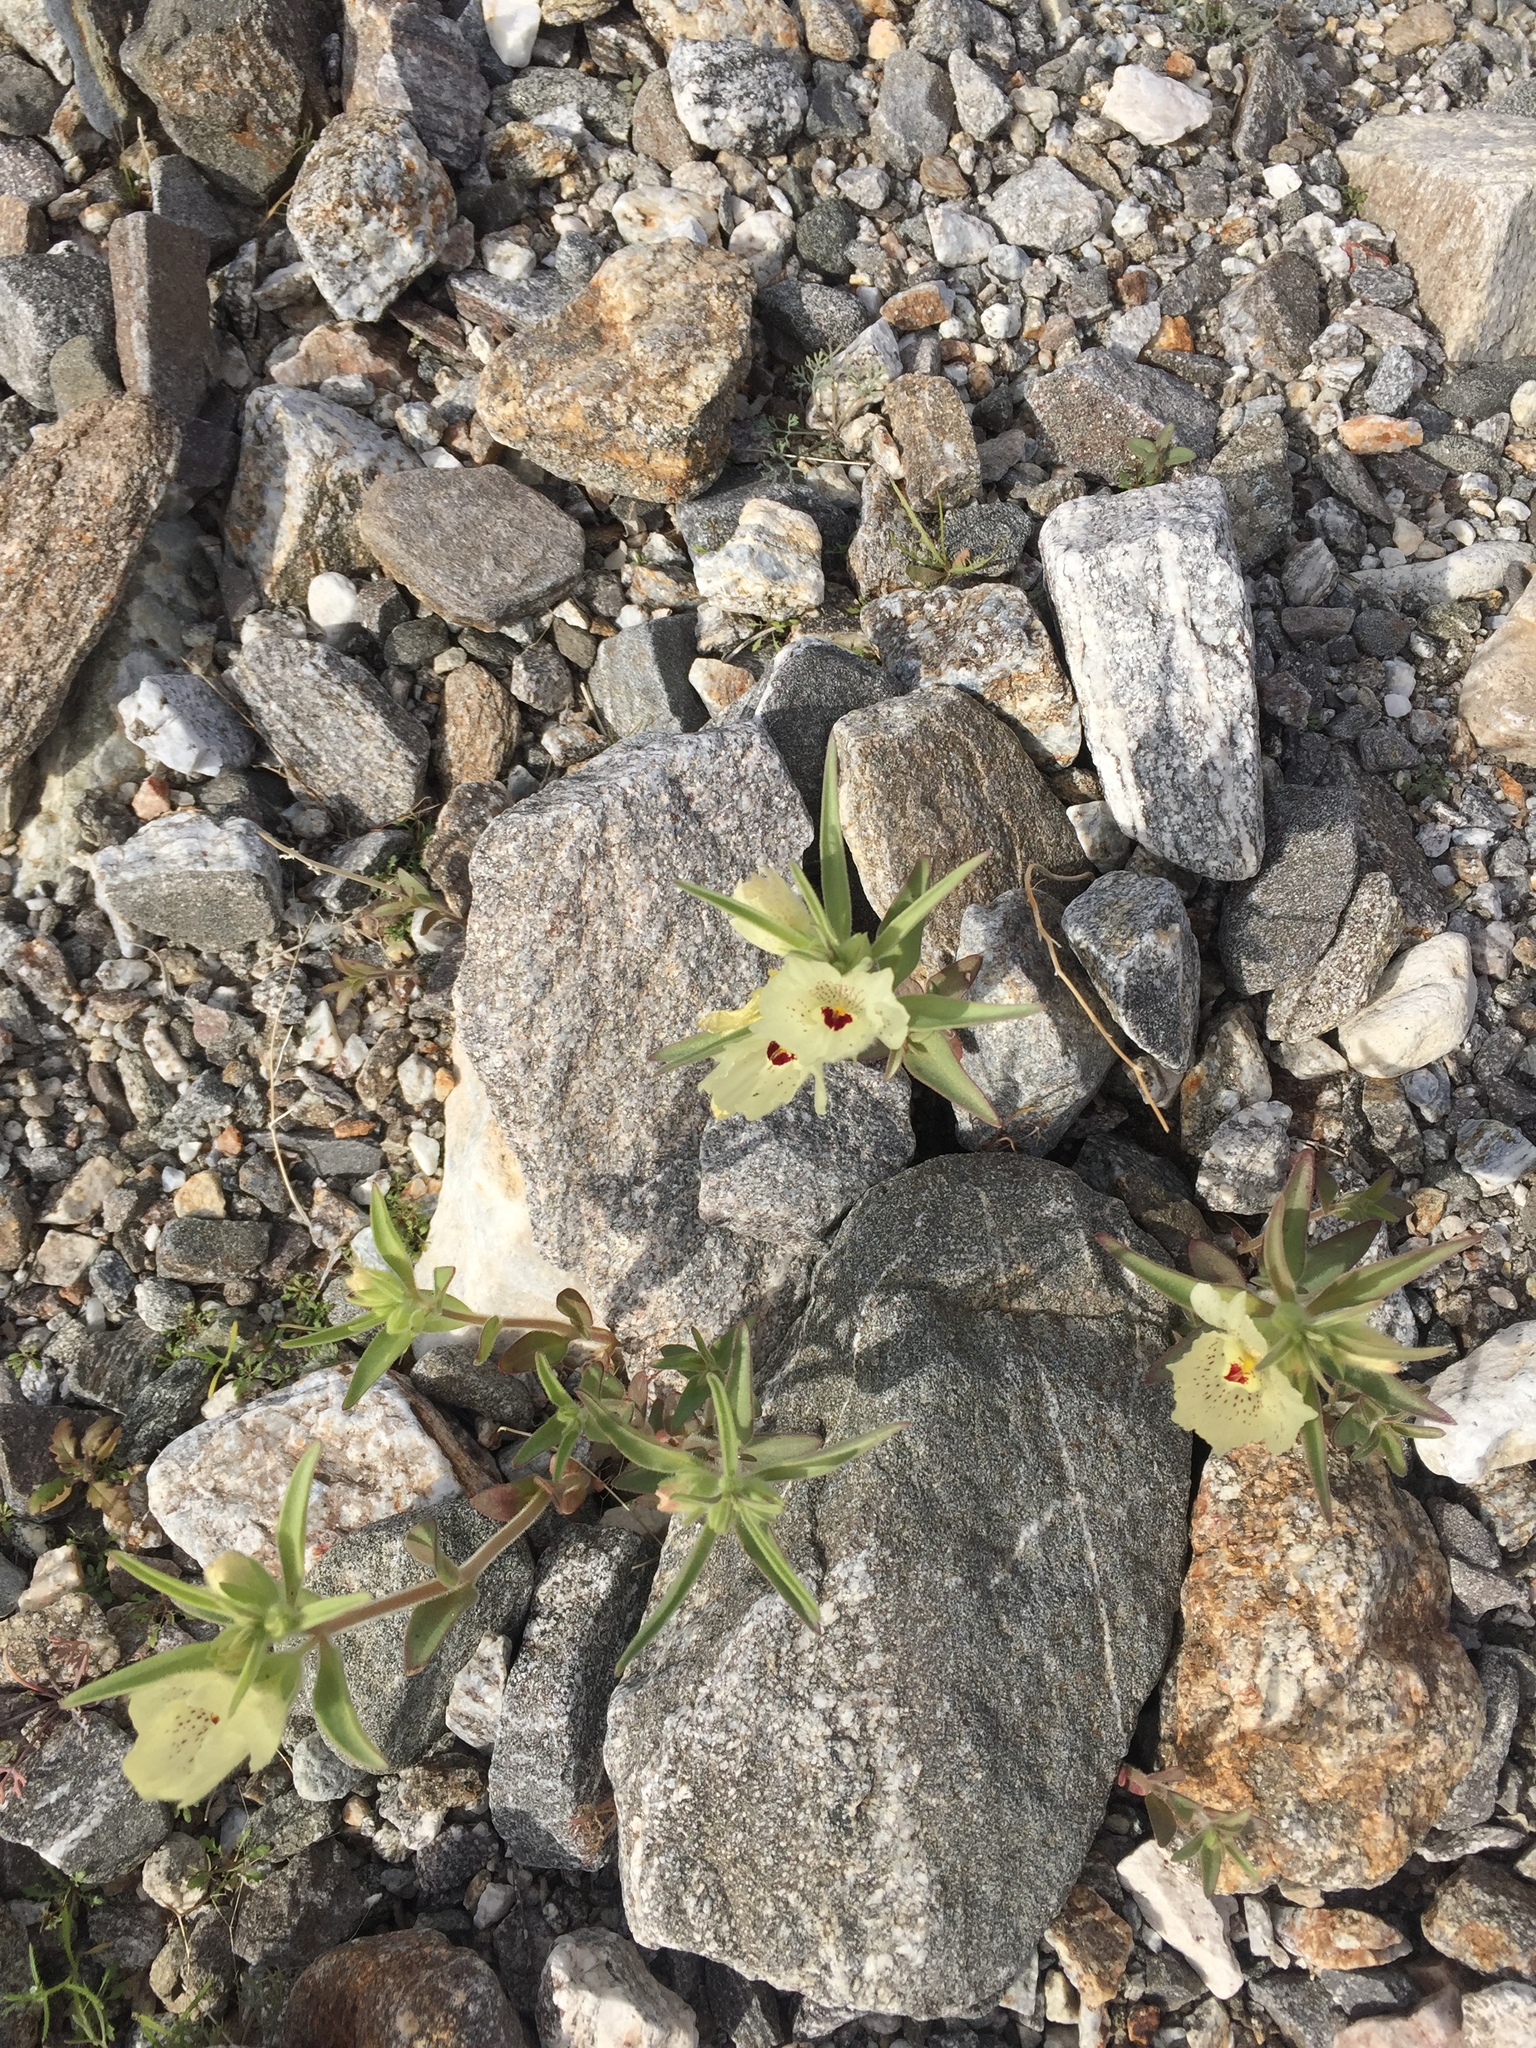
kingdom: Plantae
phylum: Tracheophyta
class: Magnoliopsida
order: Lamiales
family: Plantaginaceae
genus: Mohavea
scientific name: Mohavea confertiflora
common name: Ghost flower
